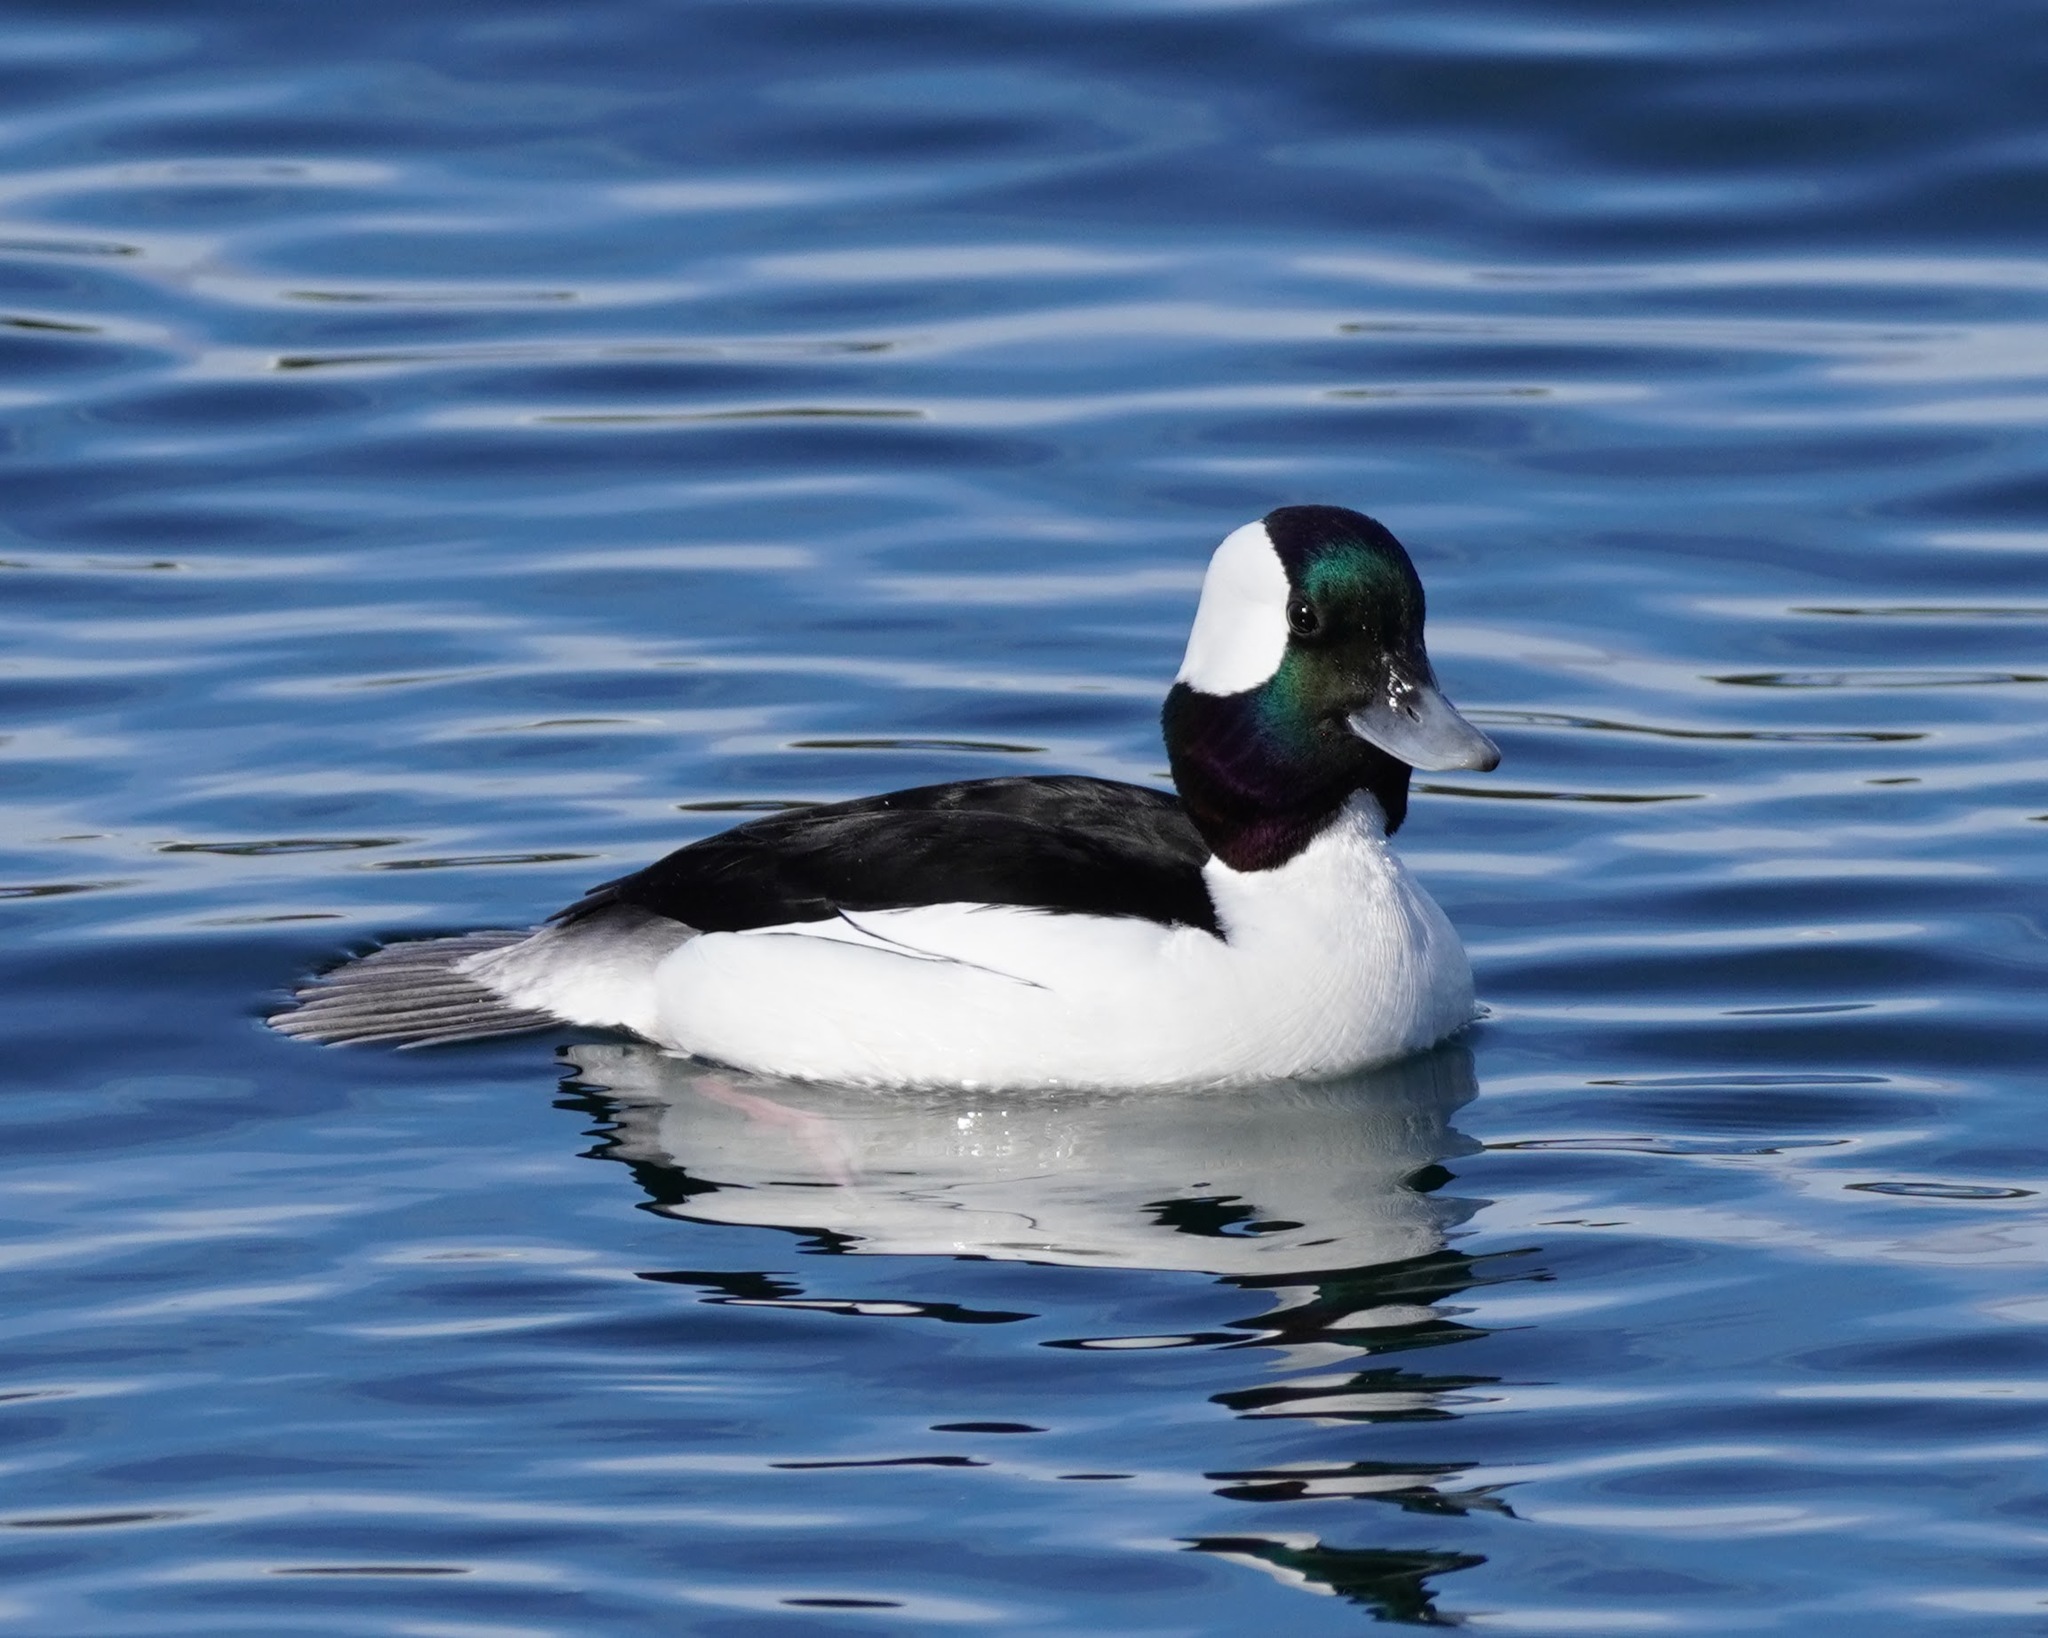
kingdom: Animalia
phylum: Chordata
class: Aves
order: Anseriformes
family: Anatidae
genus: Bucephala
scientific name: Bucephala albeola
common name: Bufflehead
